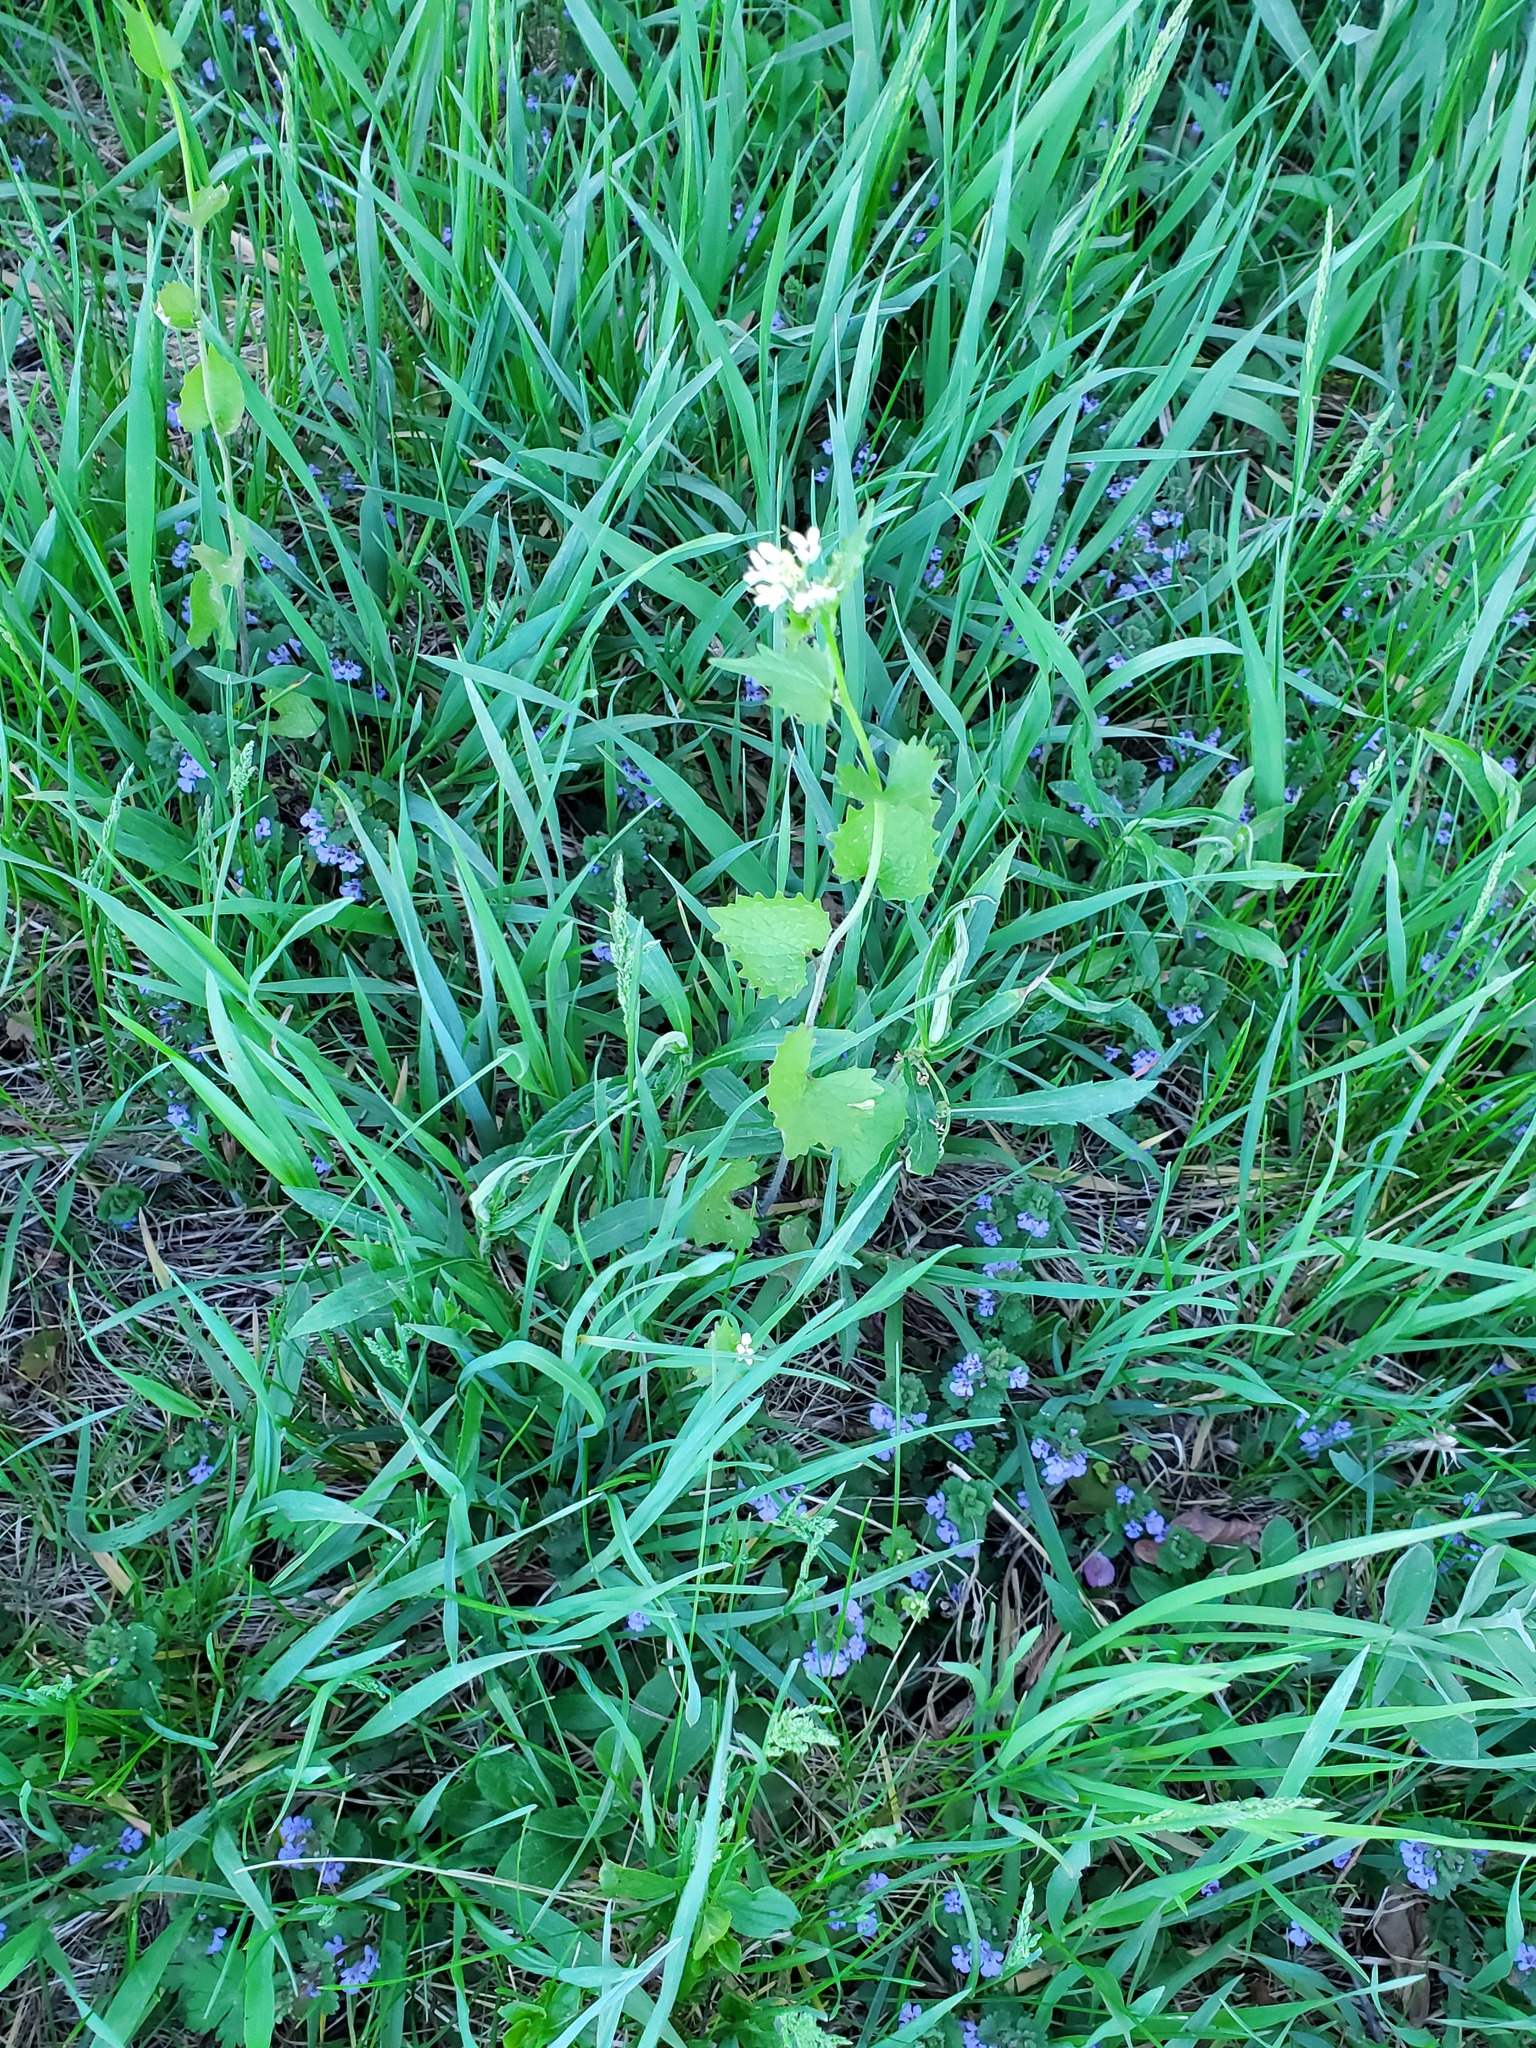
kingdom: Plantae
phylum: Tracheophyta
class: Magnoliopsida
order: Brassicales
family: Brassicaceae
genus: Alliaria
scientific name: Alliaria petiolata
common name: Garlic mustard
